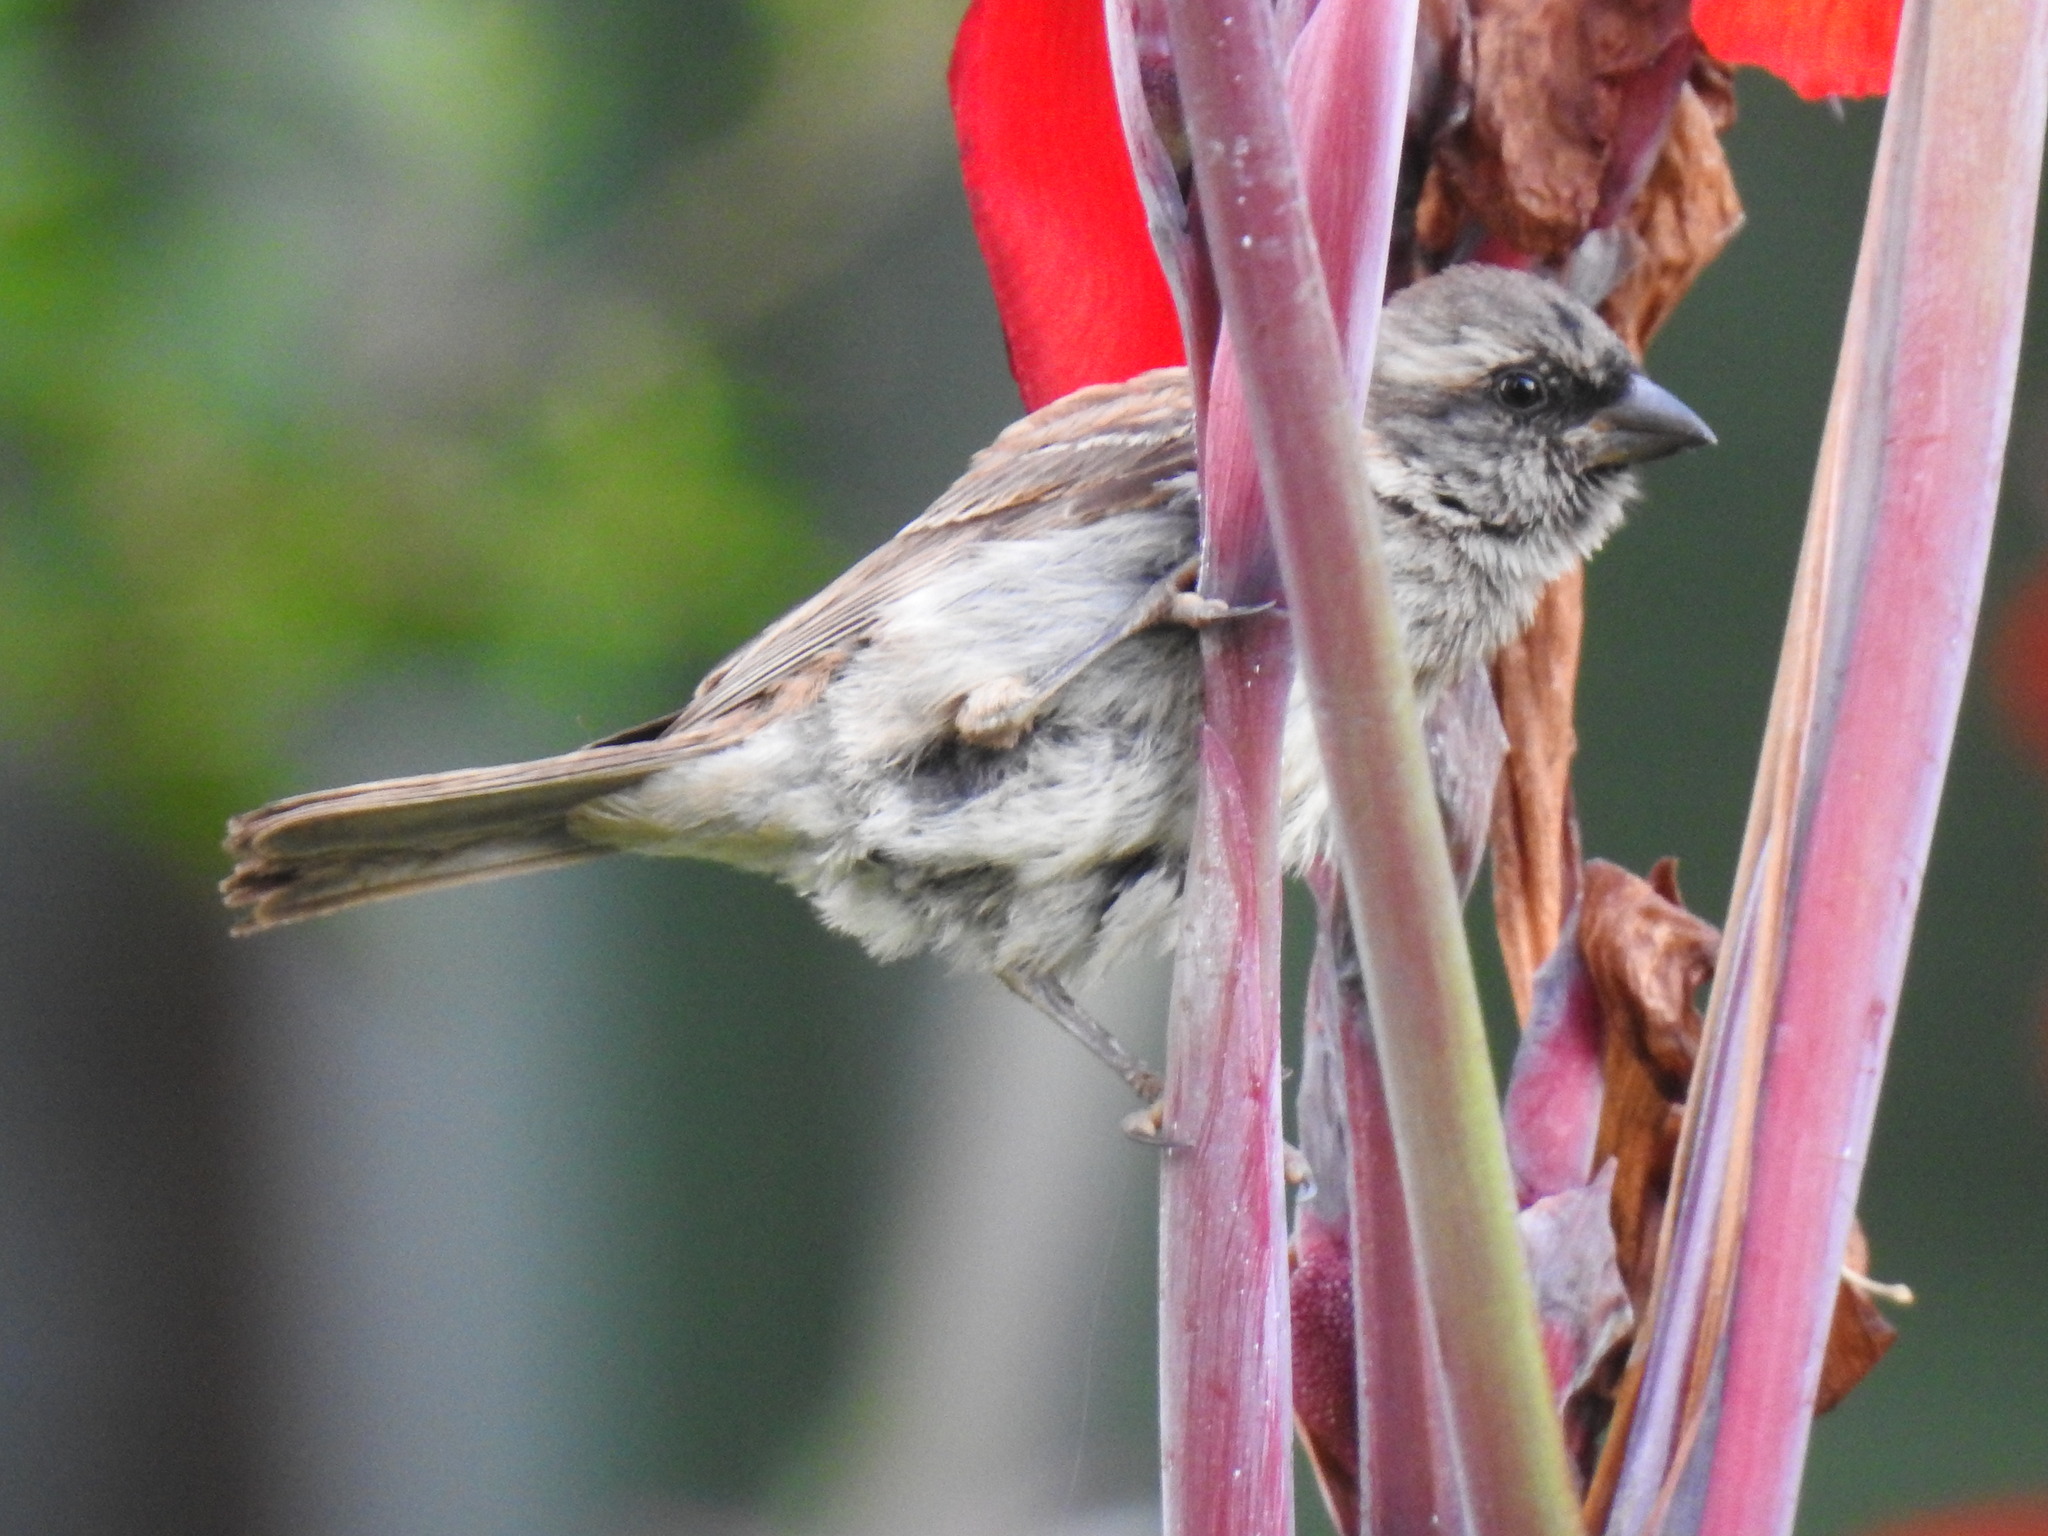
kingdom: Animalia
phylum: Chordata
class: Aves
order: Passeriformes
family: Passeridae
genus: Passer
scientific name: Passer melanurus
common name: Cape sparrow
